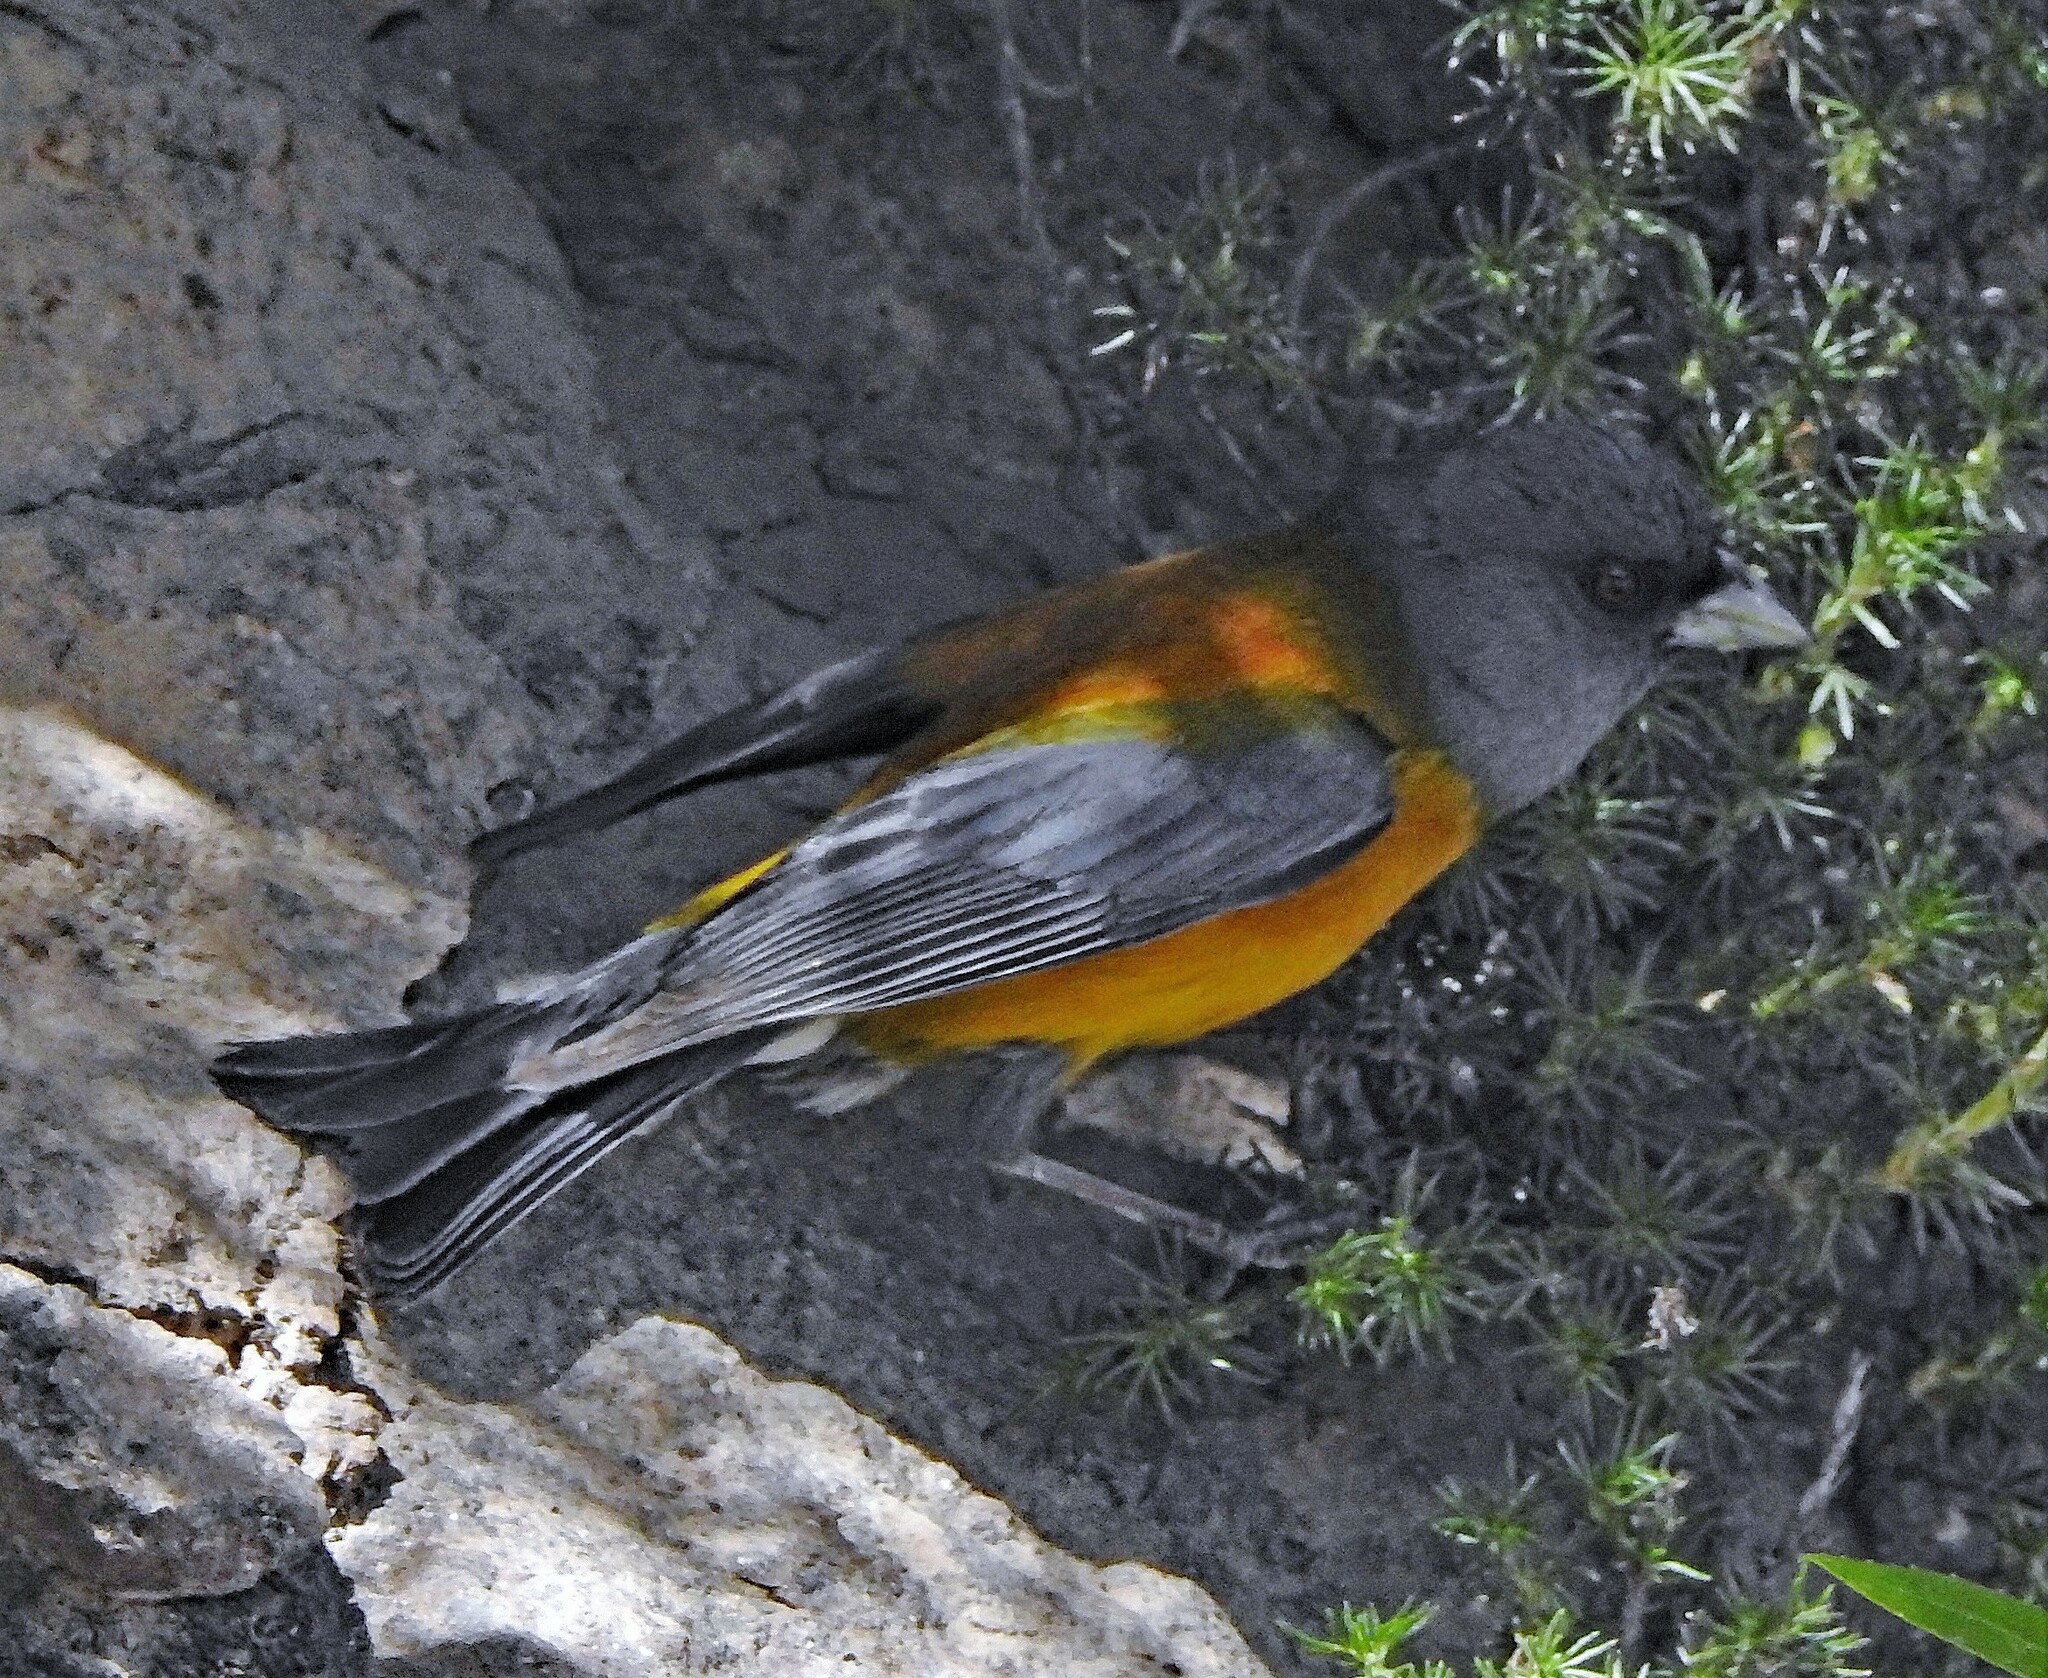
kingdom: Animalia
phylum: Chordata
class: Aves
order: Passeriformes
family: Thraupidae
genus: Phrygilus
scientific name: Phrygilus patagonicus
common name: Patagonian sierra finch
